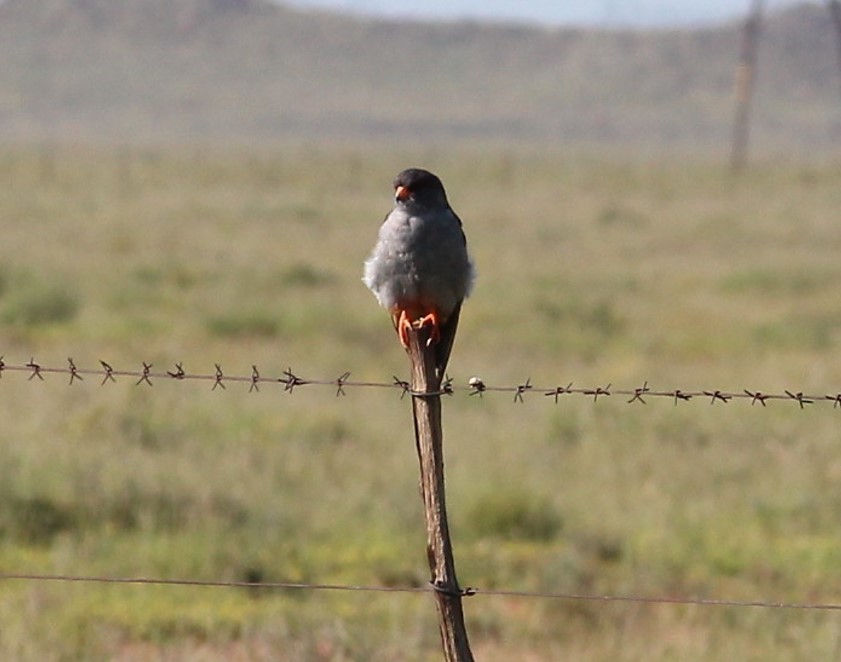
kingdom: Animalia
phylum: Chordata
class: Aves
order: Falconiformes
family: Falconidae
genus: Falco
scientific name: Falco amurensis
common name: Amur falcon
